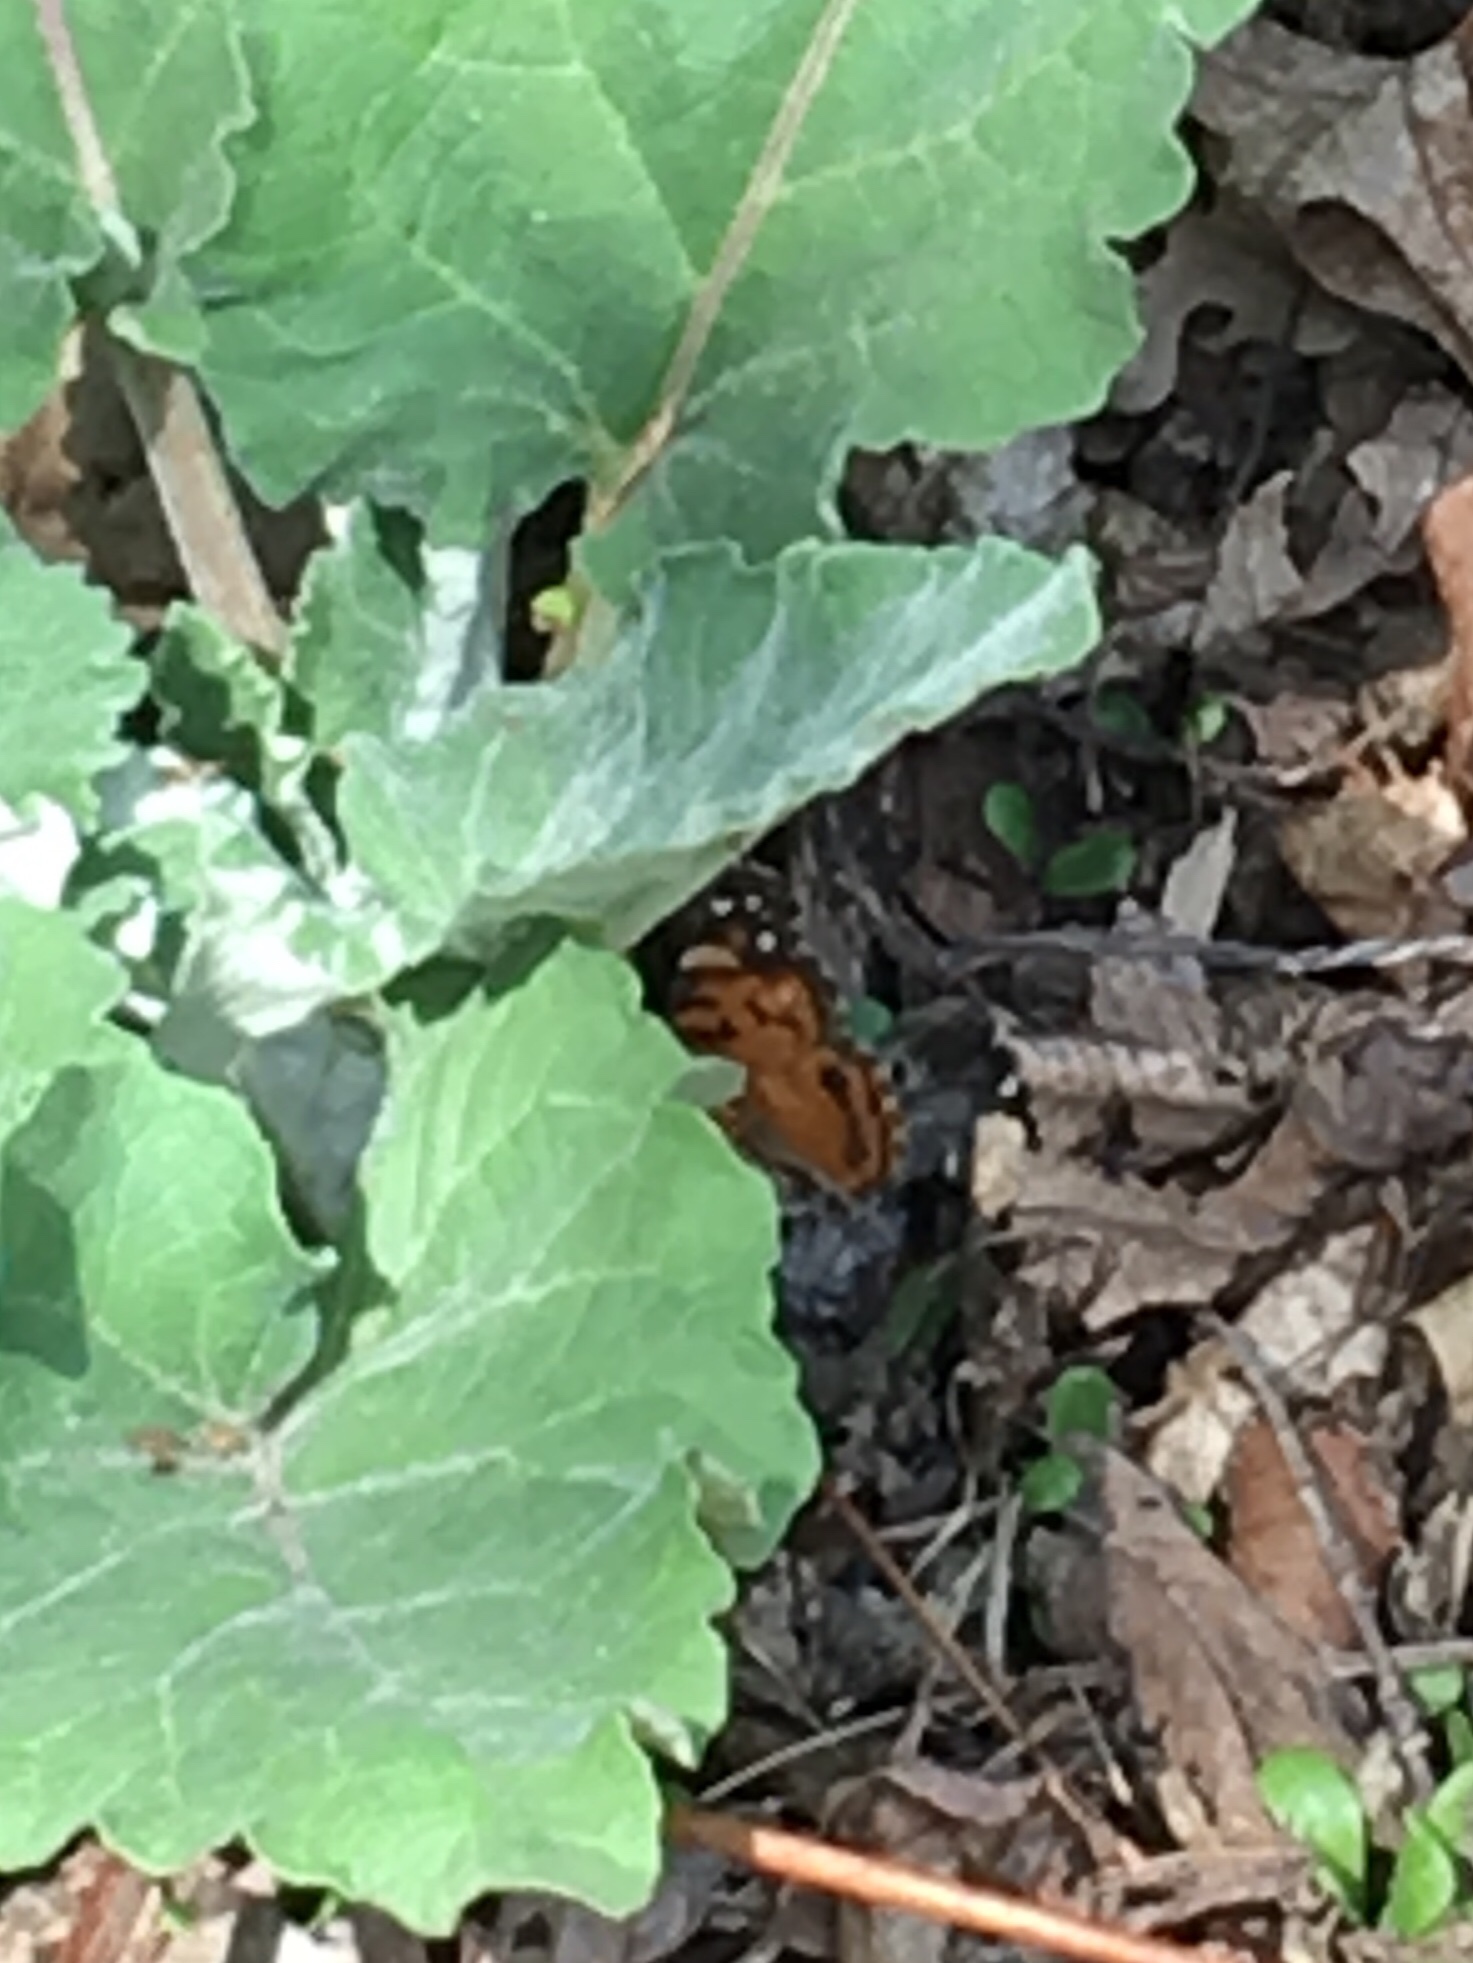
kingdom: Animalia
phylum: Arthropoda
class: Insecta
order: Lepidoptera
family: Nymphalidae
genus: Vanessa
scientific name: Vanessa virginiensis
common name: American lady
